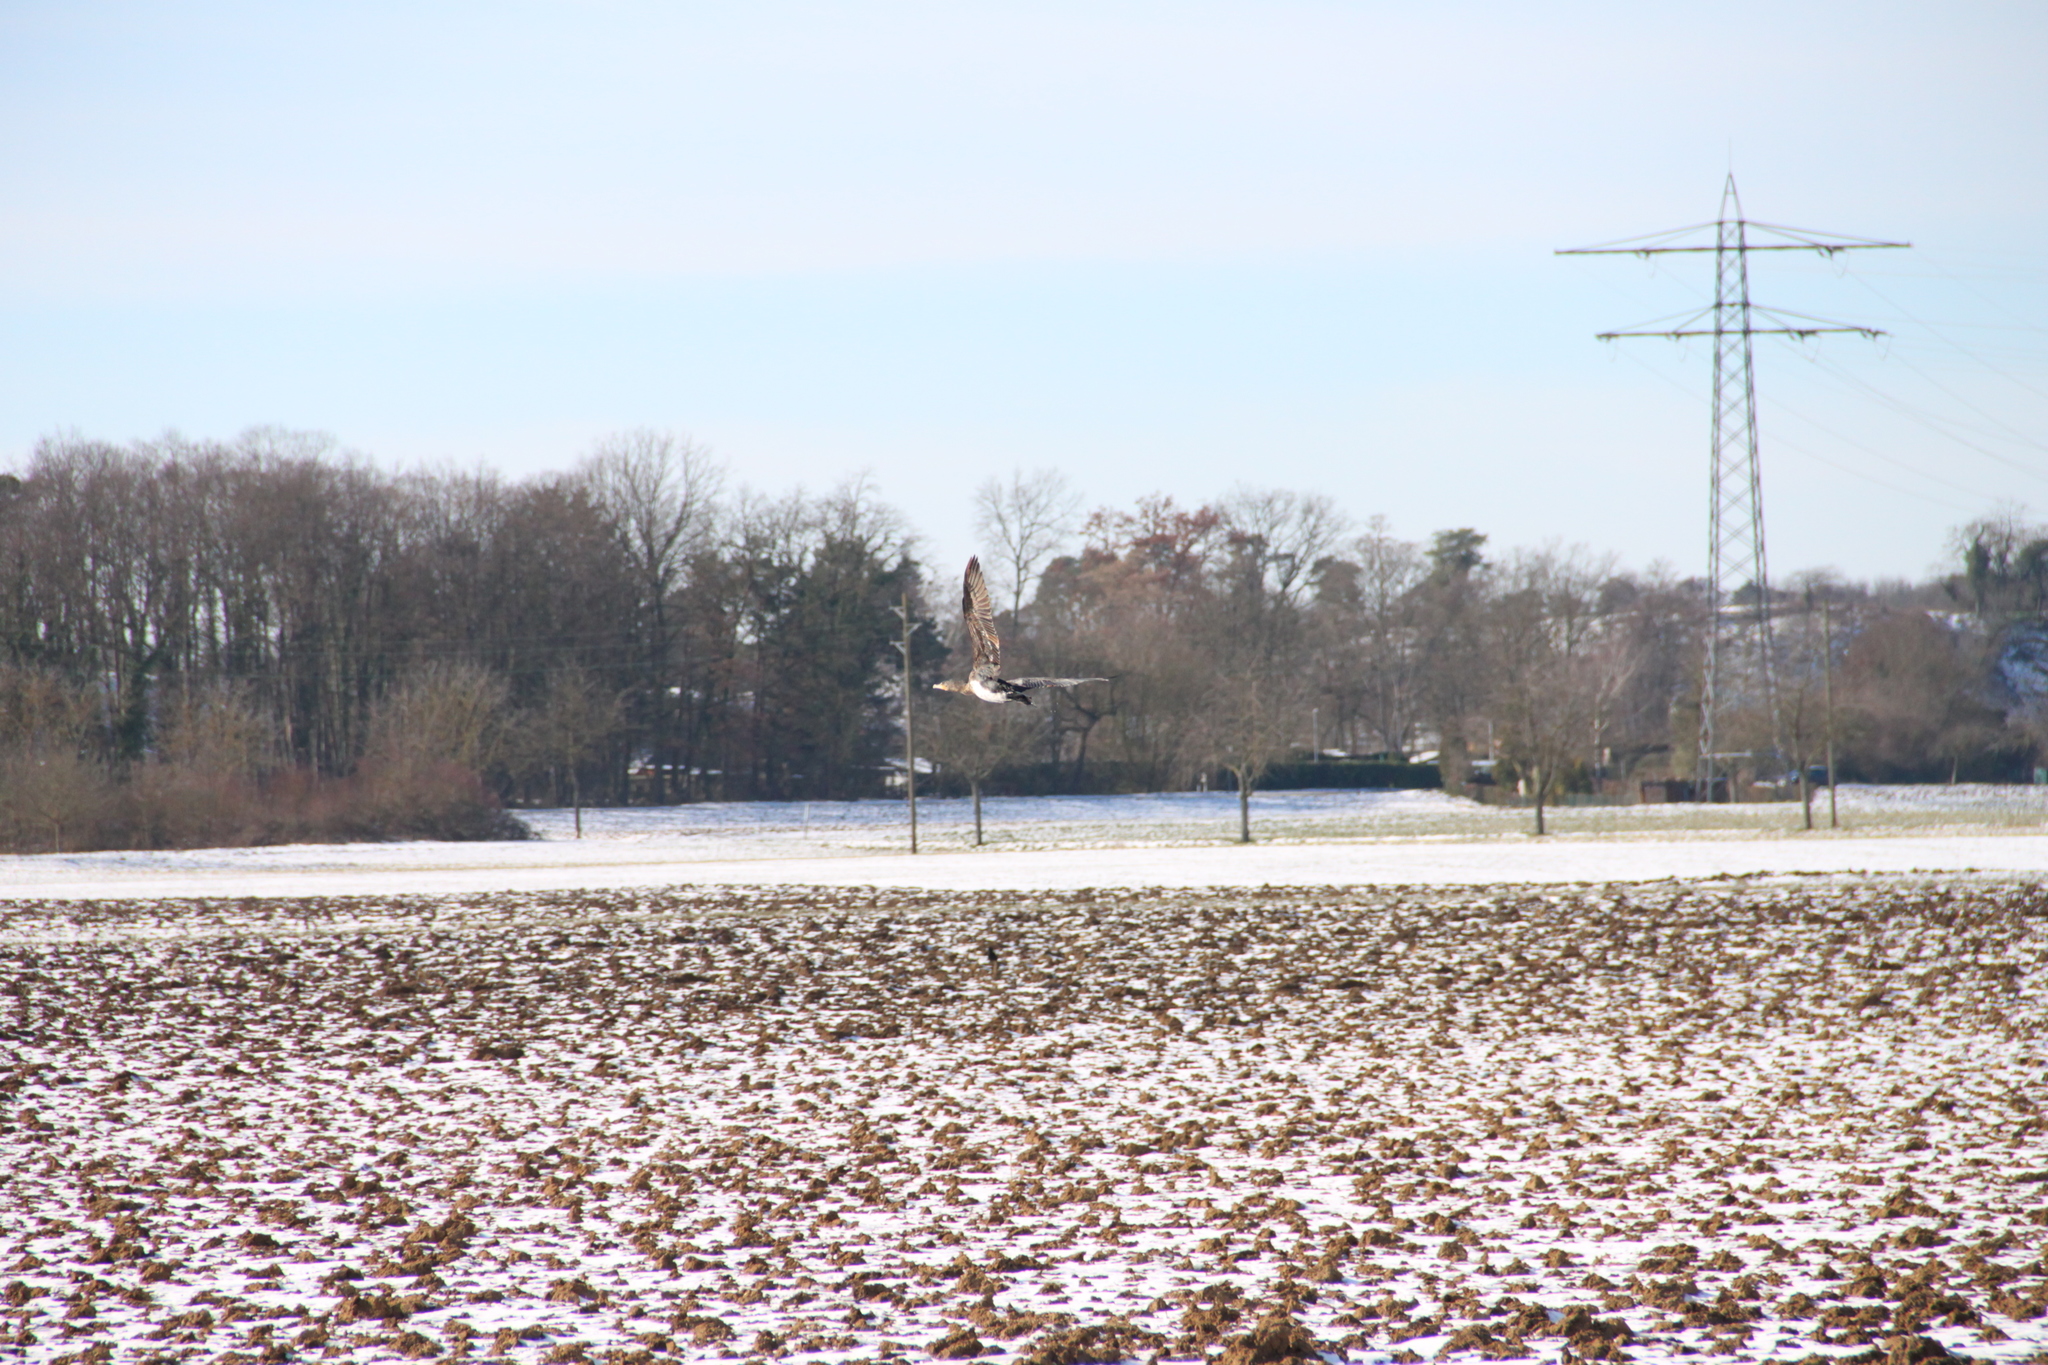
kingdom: Animalia
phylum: Chordata
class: Aves
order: Suliformes
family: Phalacrocoracidae
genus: Phalacrocorax
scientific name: Phalacrocorax carbo
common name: Great cormorant
